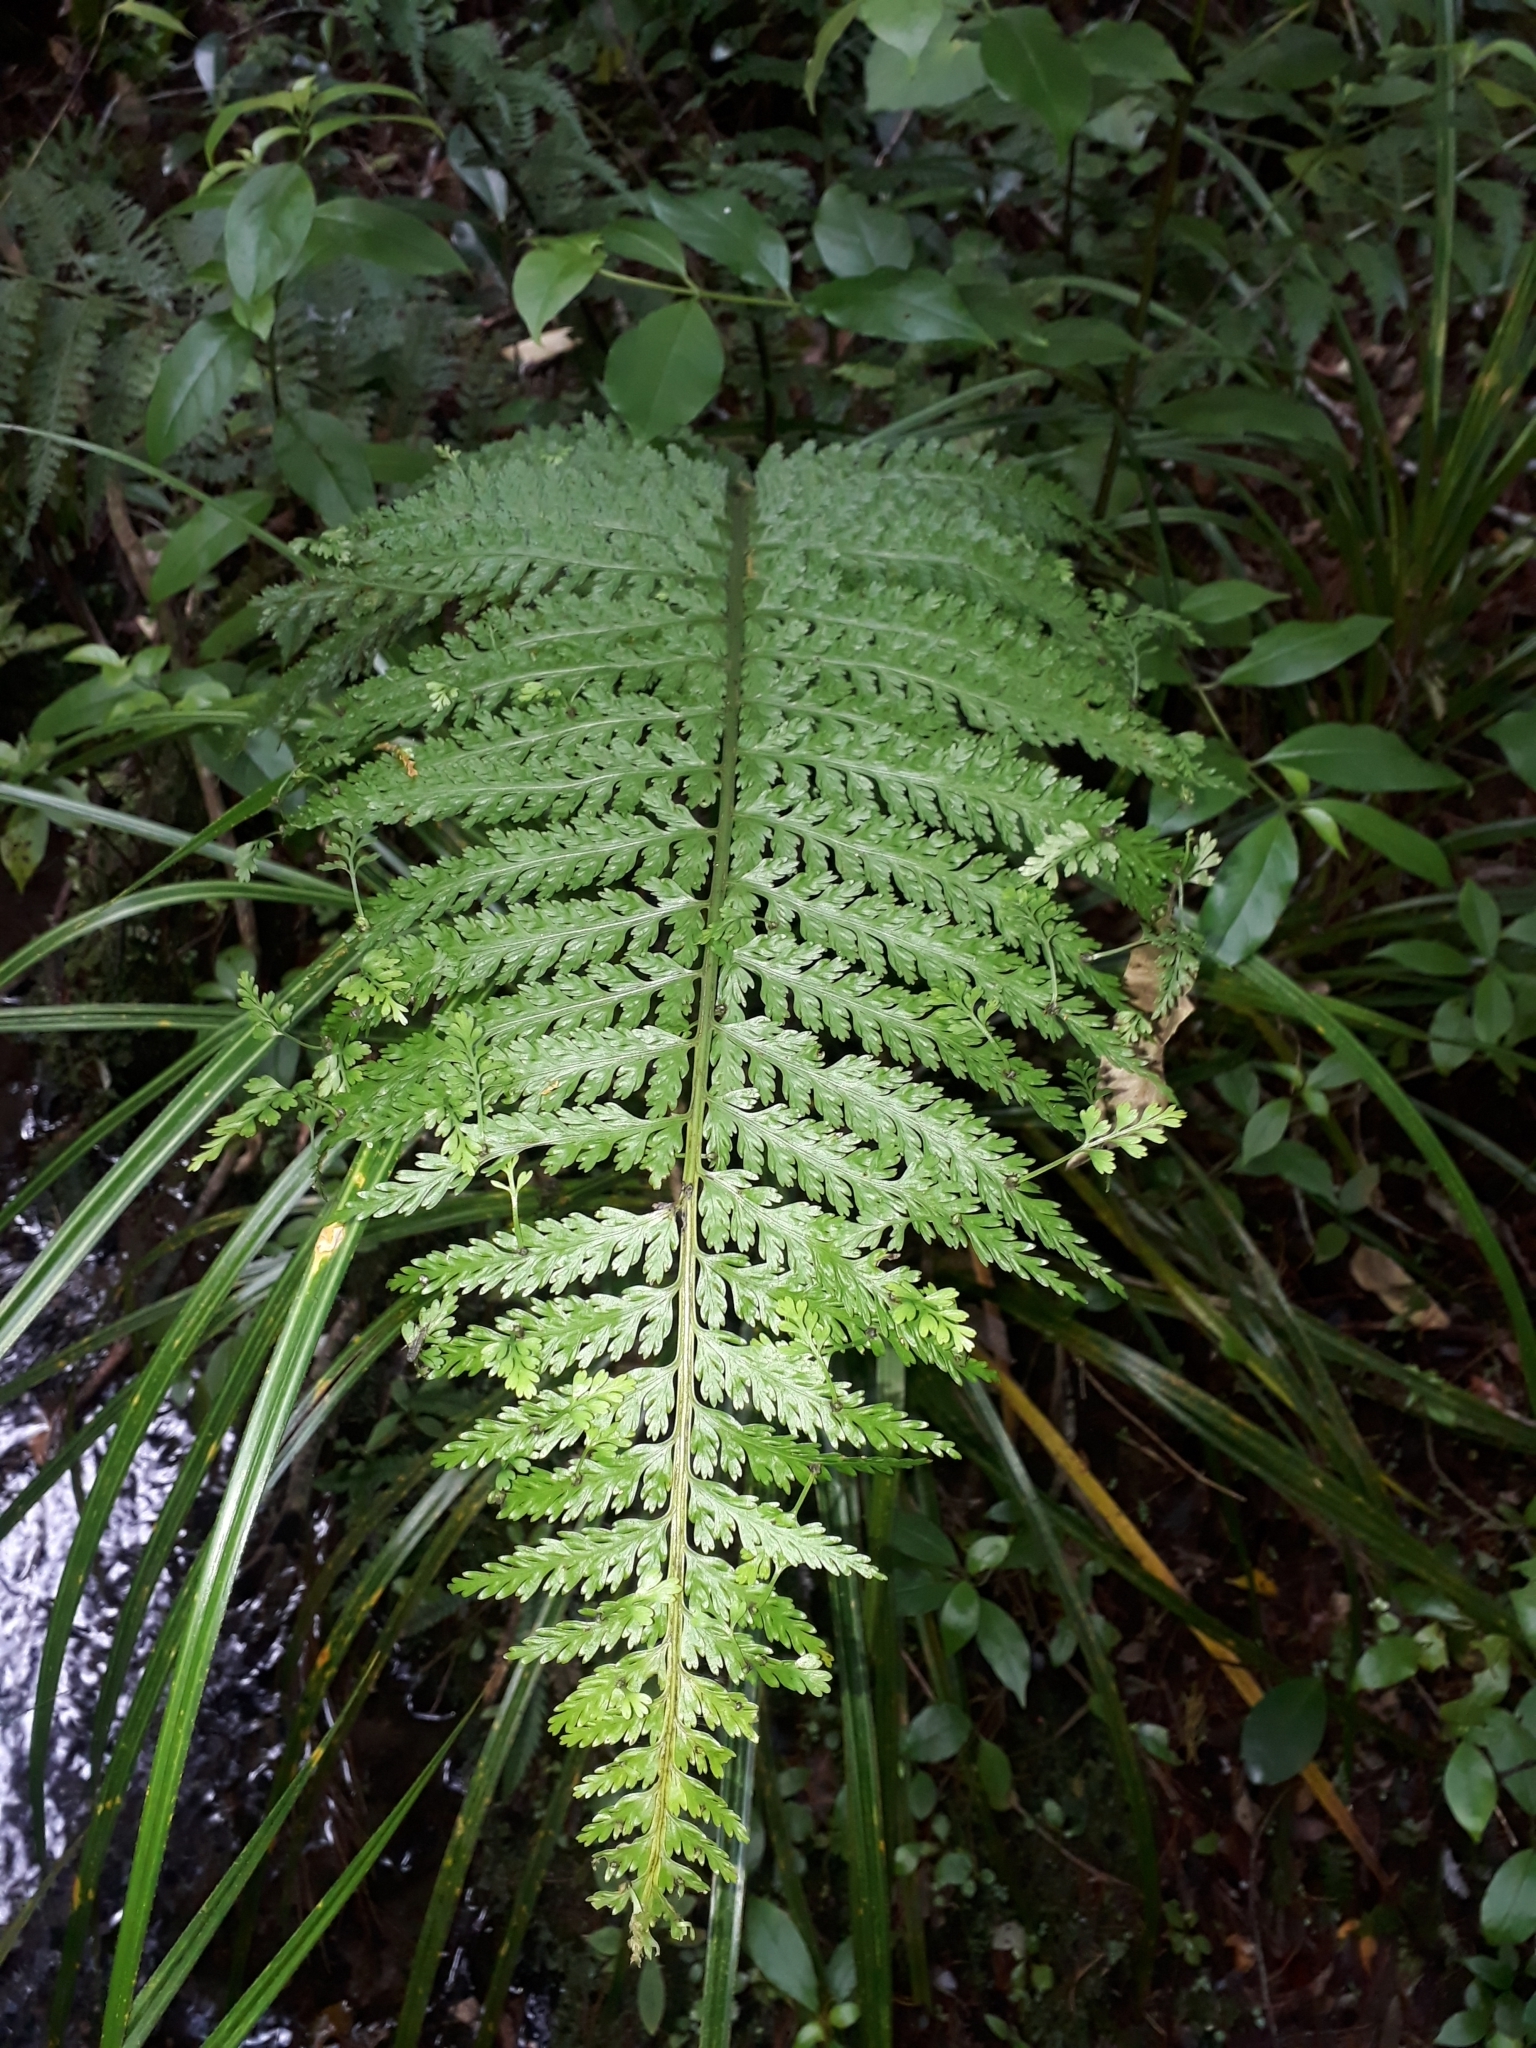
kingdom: Plantae
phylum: Tracheophyta
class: Polypodiopsida
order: Polypodiales
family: Aspleniaceae
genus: Asplenium
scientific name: Asplenium bulbiferum
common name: Mother fern
